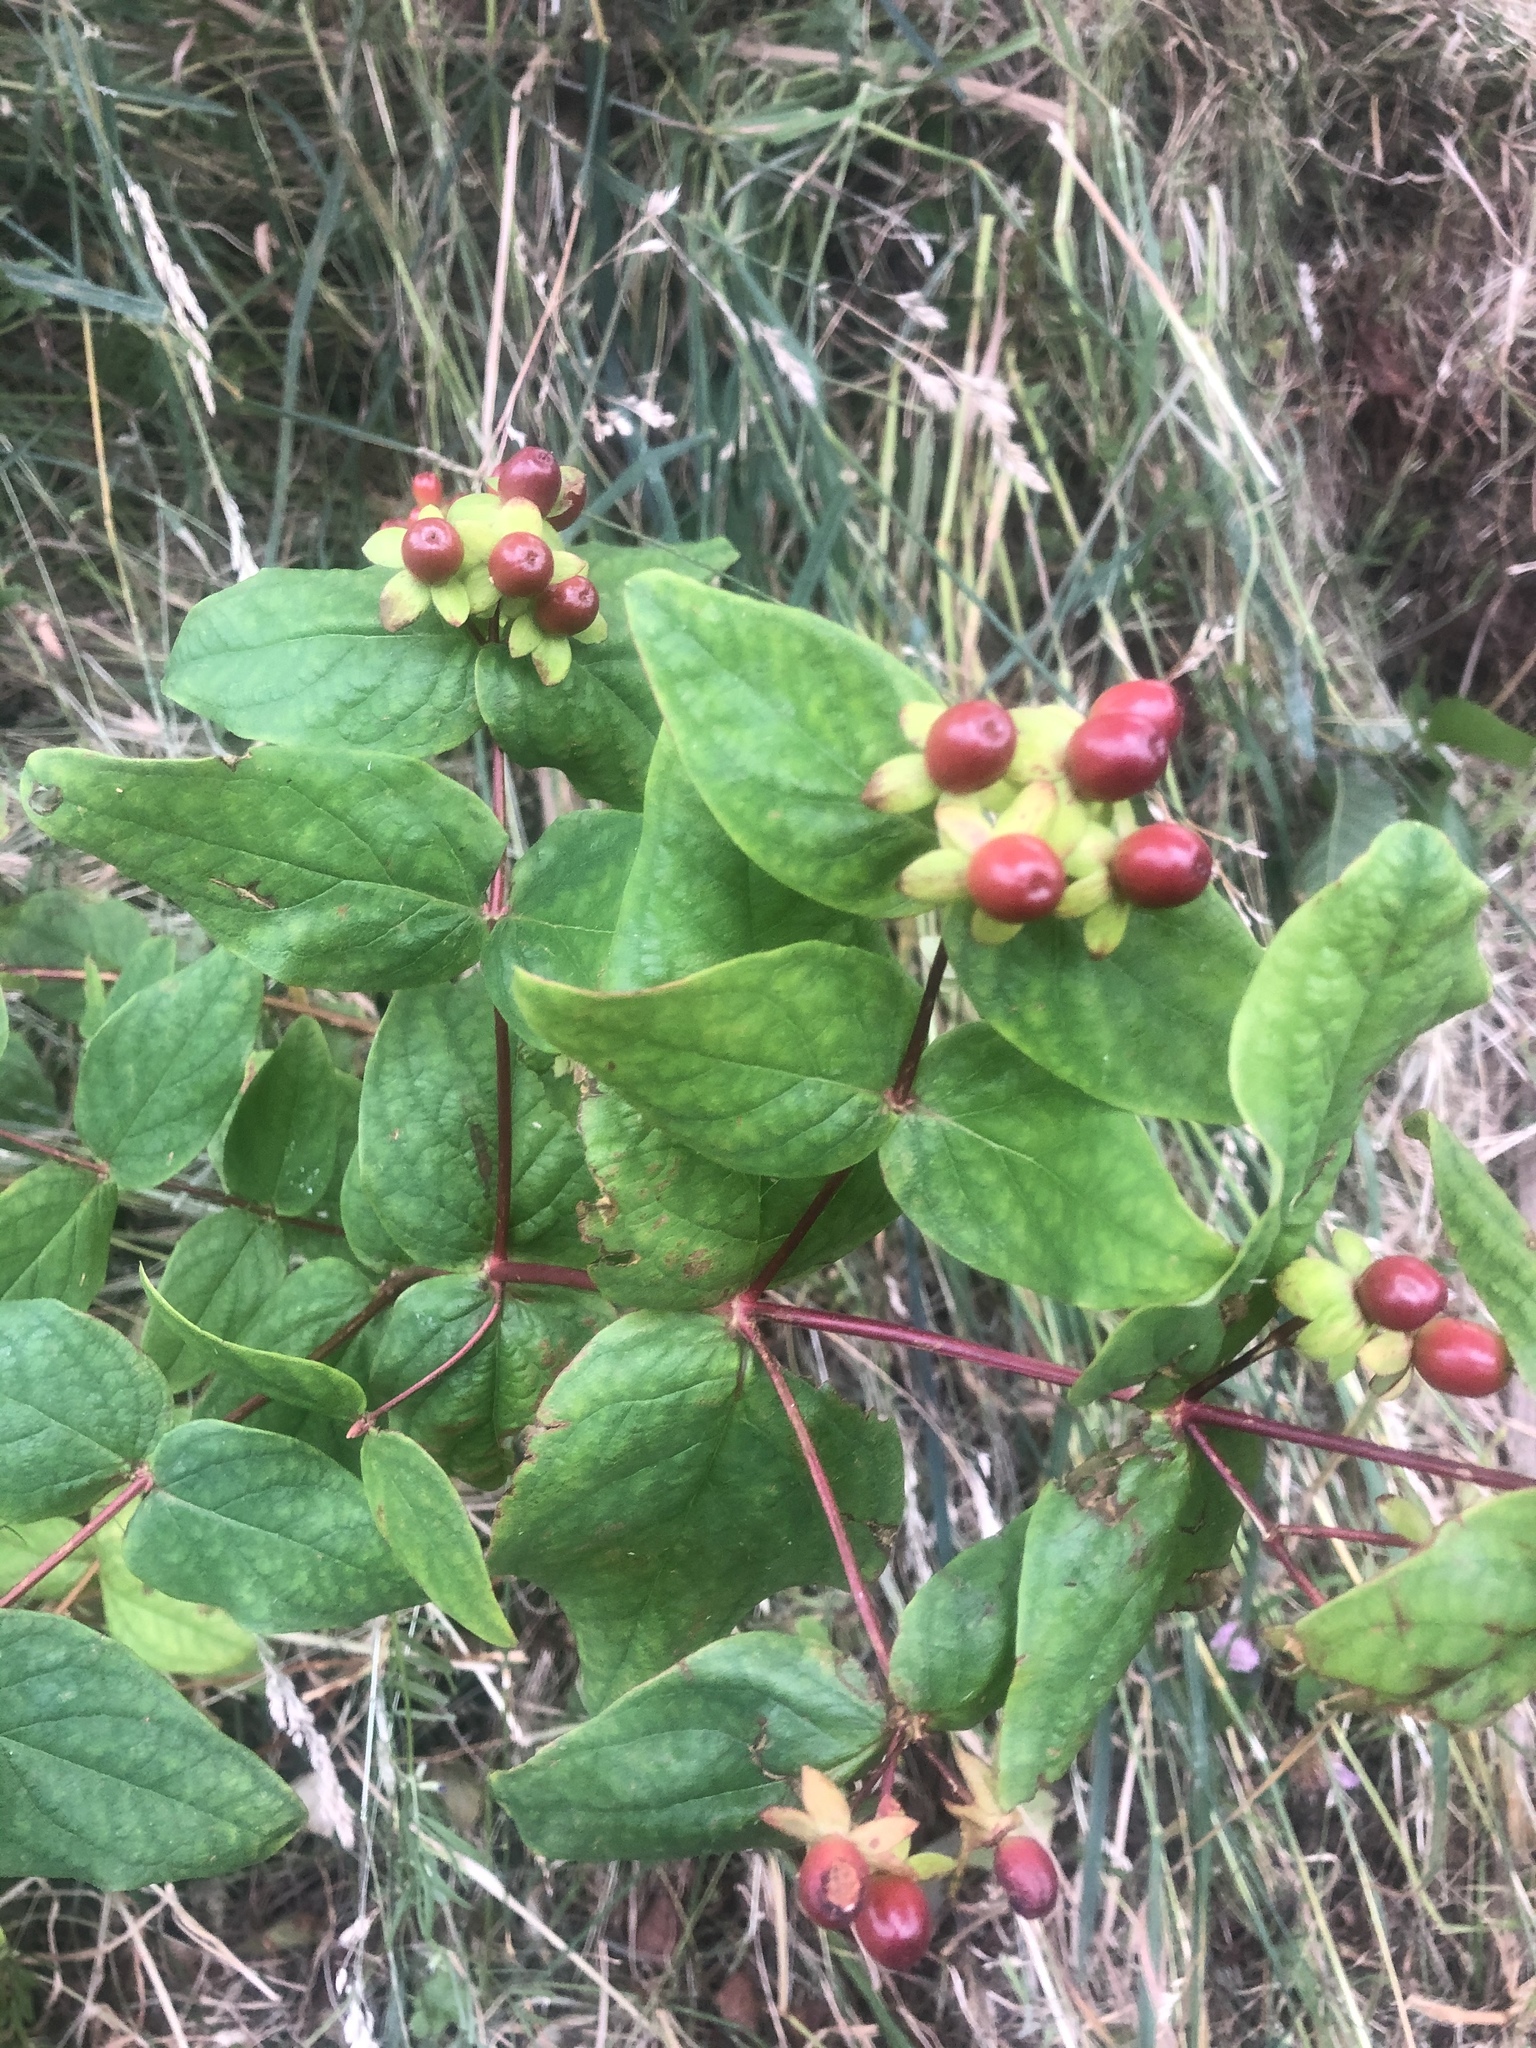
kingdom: Plantae
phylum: Tracheophyta
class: Magnoliopsida
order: Malpighiales
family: Hypericaceae
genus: Hypericum
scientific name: Hypericum androsaemum
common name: Sweet-amber
